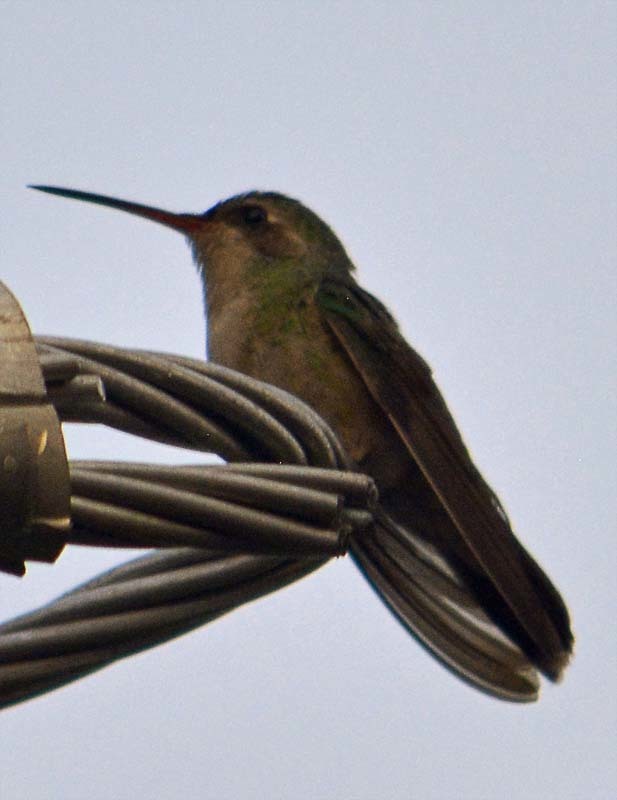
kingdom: Animalia
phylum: Chordata
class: Aves
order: Apodiformes
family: Trochilidae
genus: Cynanthus
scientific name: Cynanthus latirostris
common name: Broad-billed hummingbird
